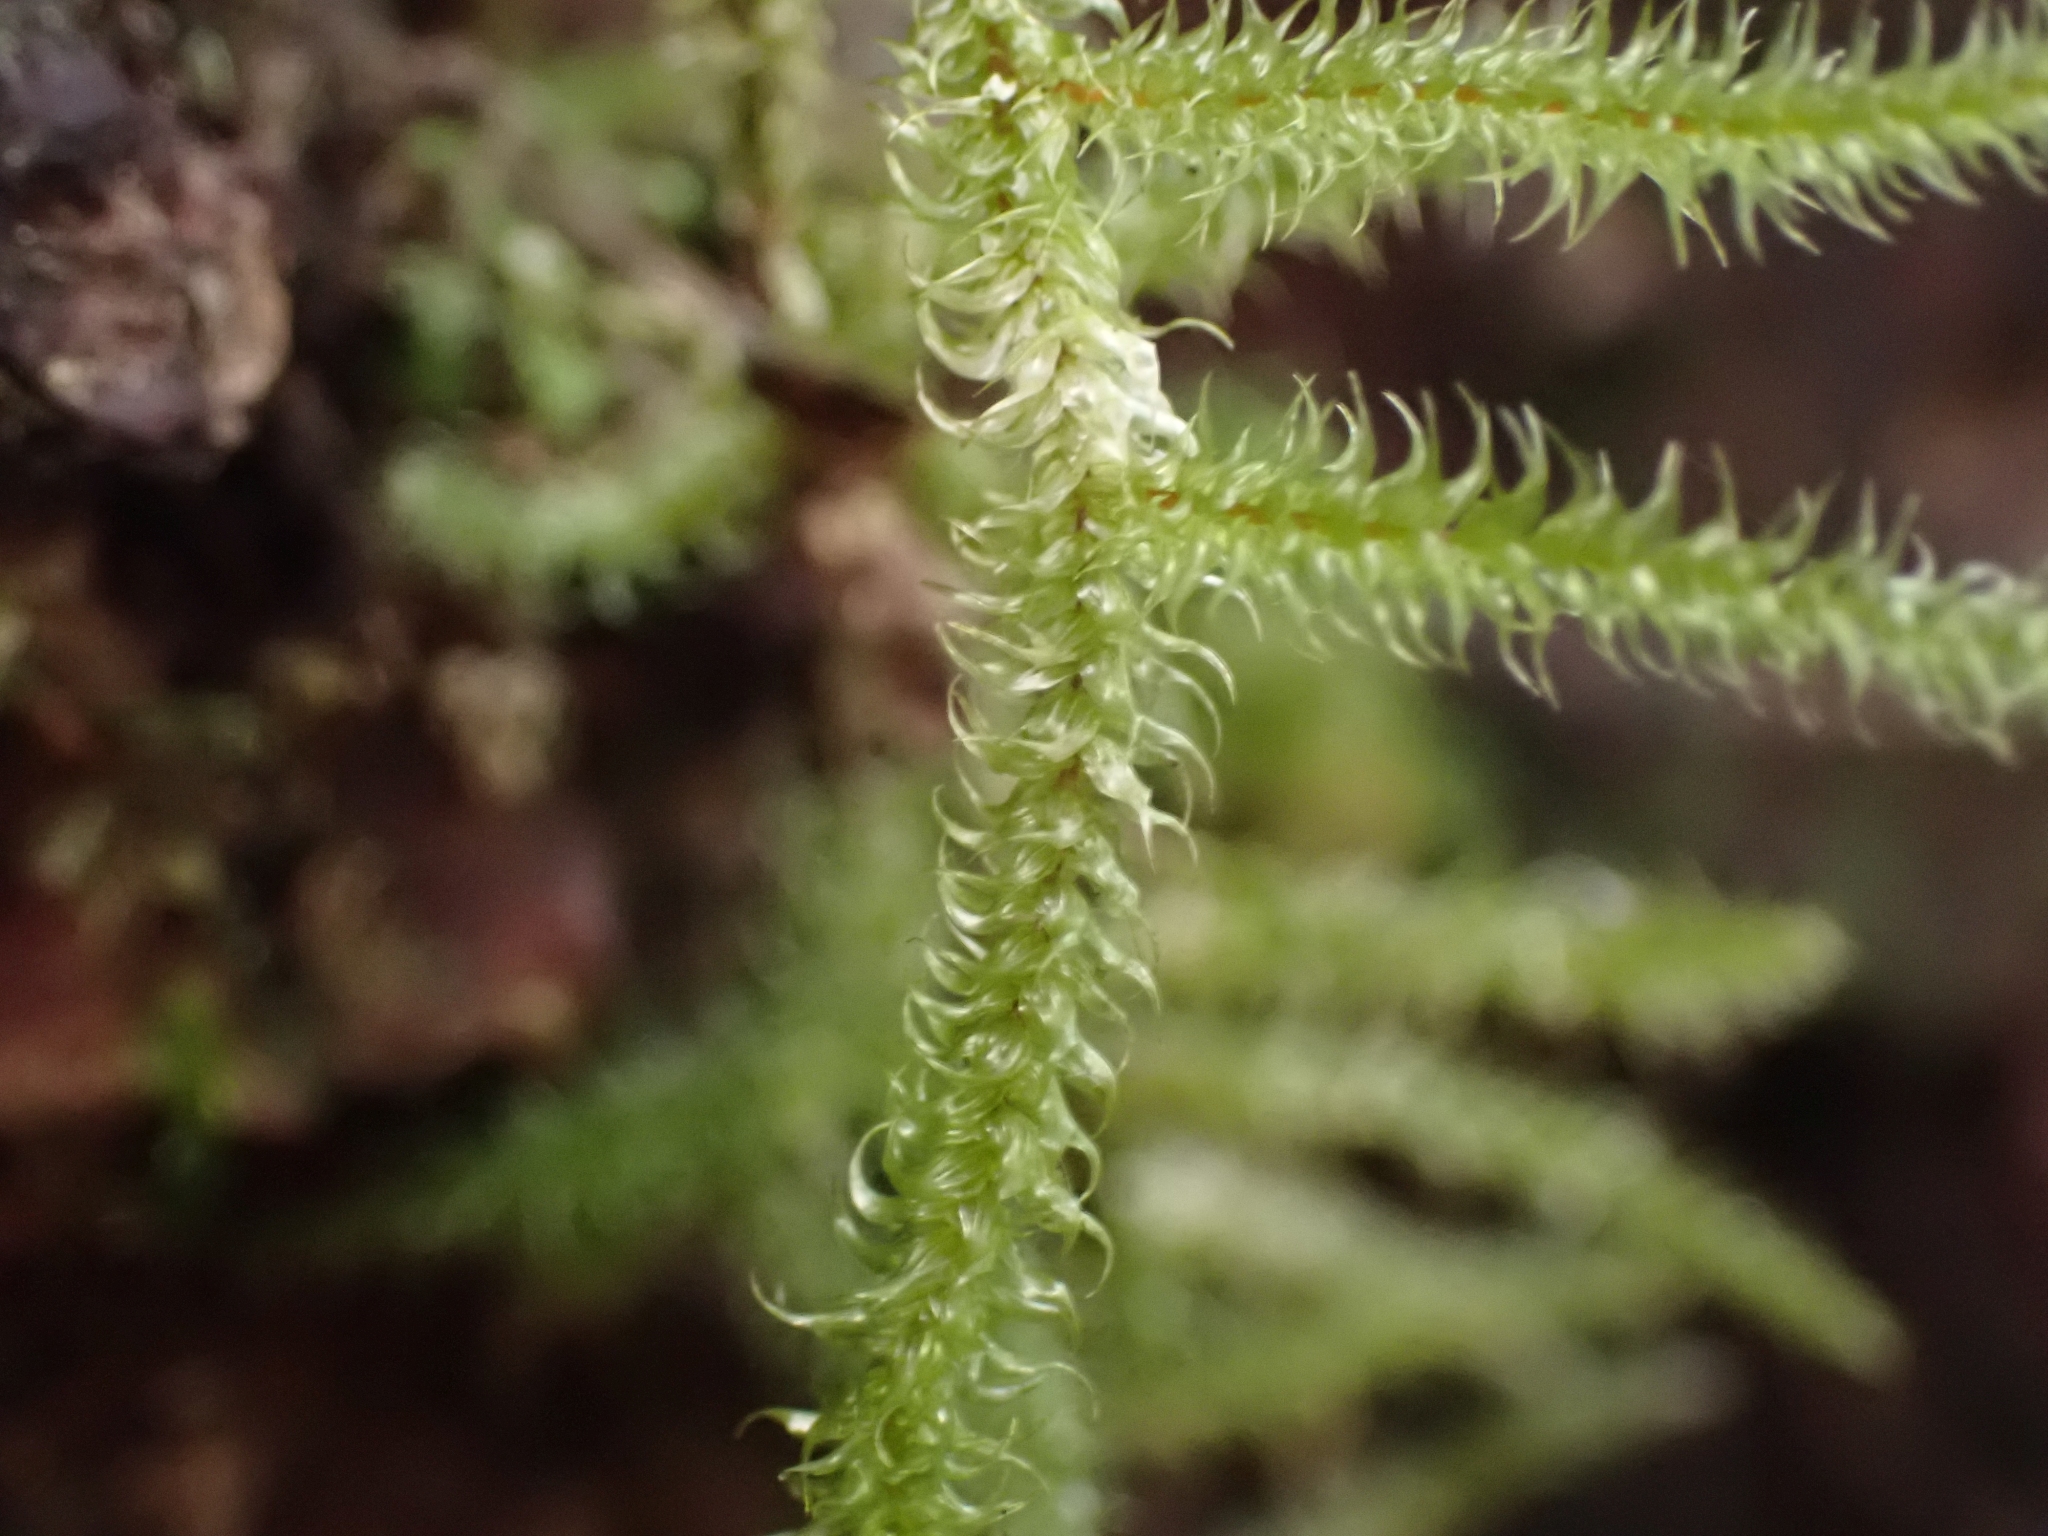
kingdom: Plantae
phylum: Bryophyta
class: Bryopsida
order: Hypnales
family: Hylocomiaceae
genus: Rhytidiadelphus
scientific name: Rhytidiadelphus loreus
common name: Lanky moss
